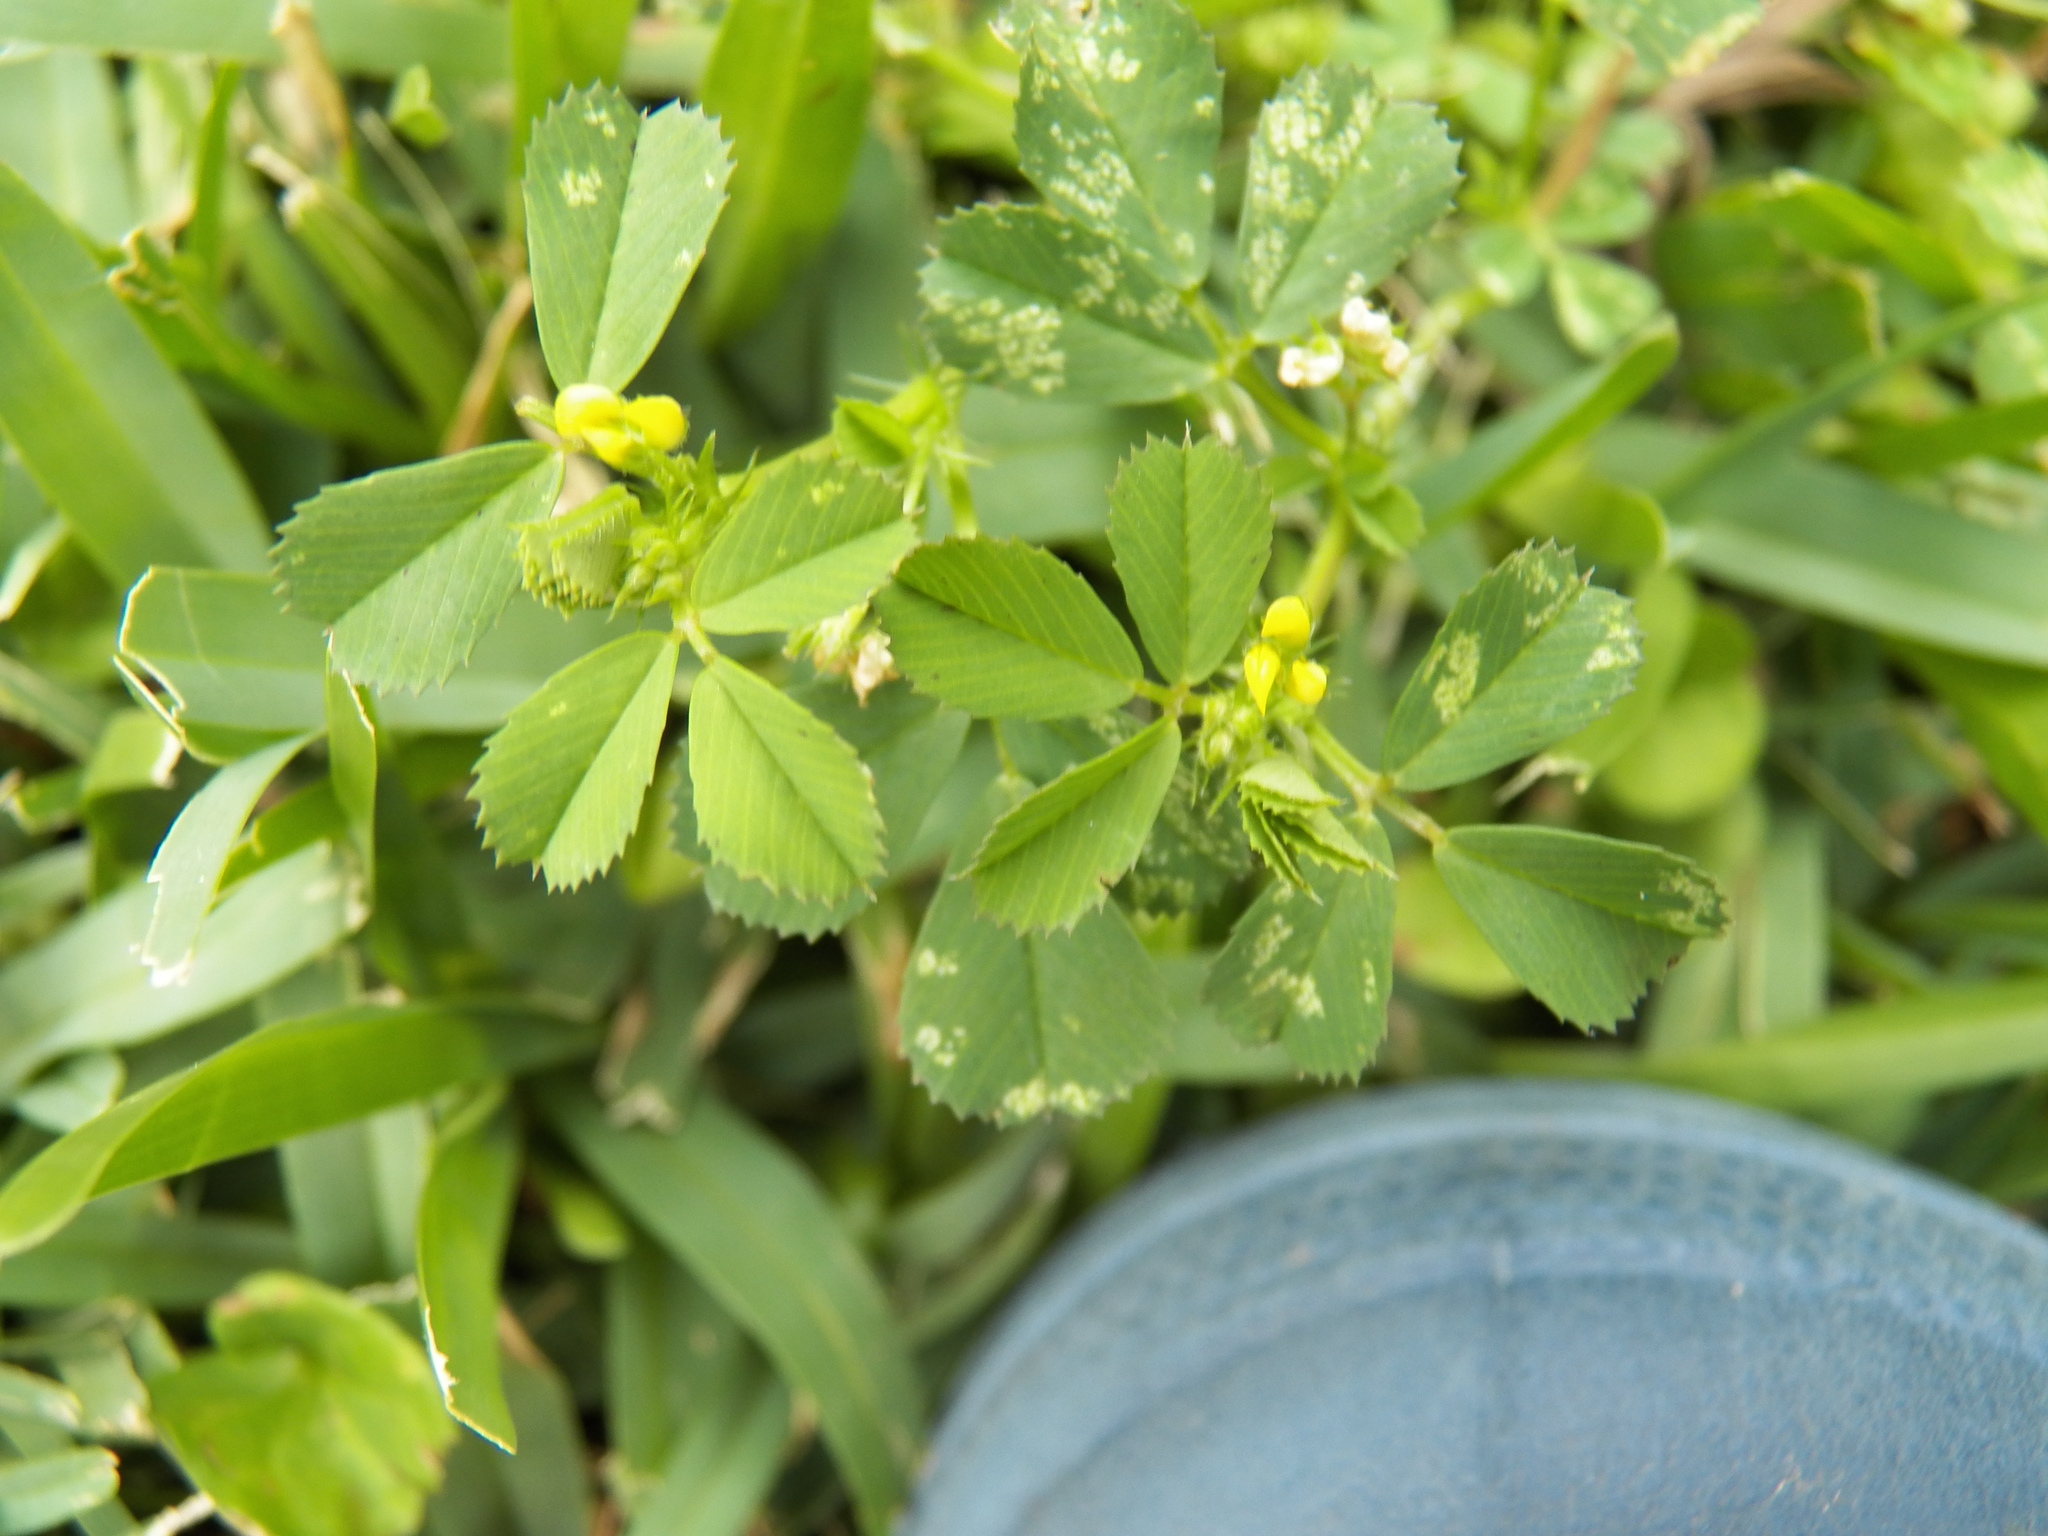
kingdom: Plantae
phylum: Tracheophyta
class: Magnoliopsida
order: Fabales
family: Fabaceae
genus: Medicago
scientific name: Medicago polymorpha
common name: Burclover
